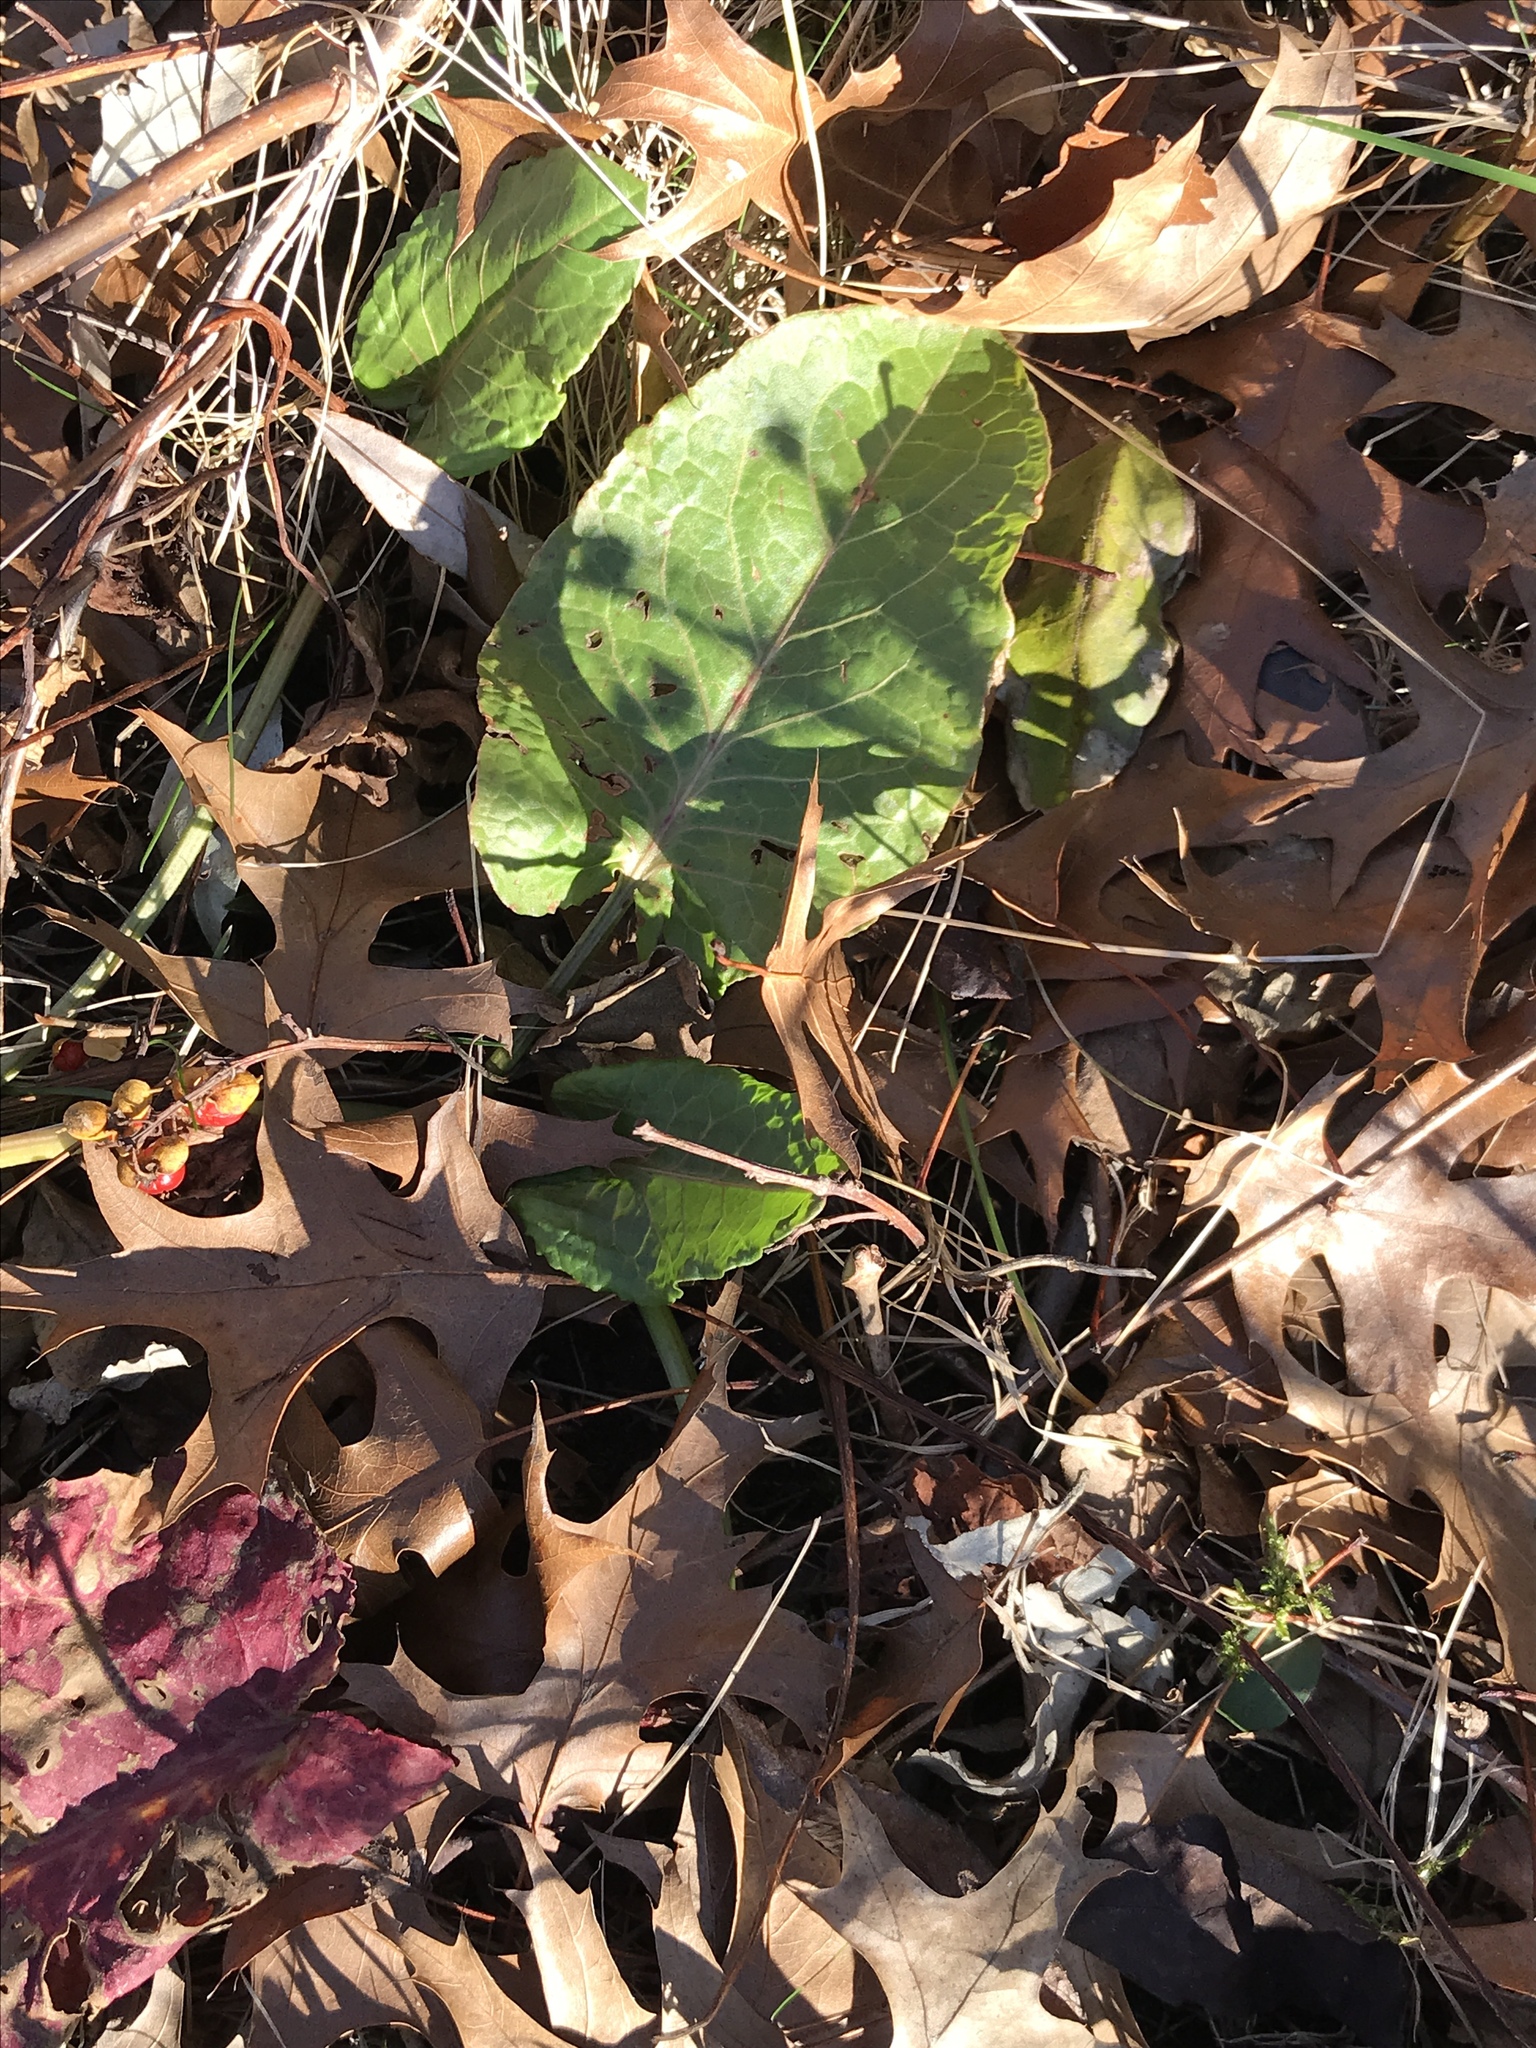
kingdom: Plantae
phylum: Tracheophyta
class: Magnoliopsida
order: Caryophyllales
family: Polygonaceae
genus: Rumex
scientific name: Rumex obtusifolius
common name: Bitter dock
